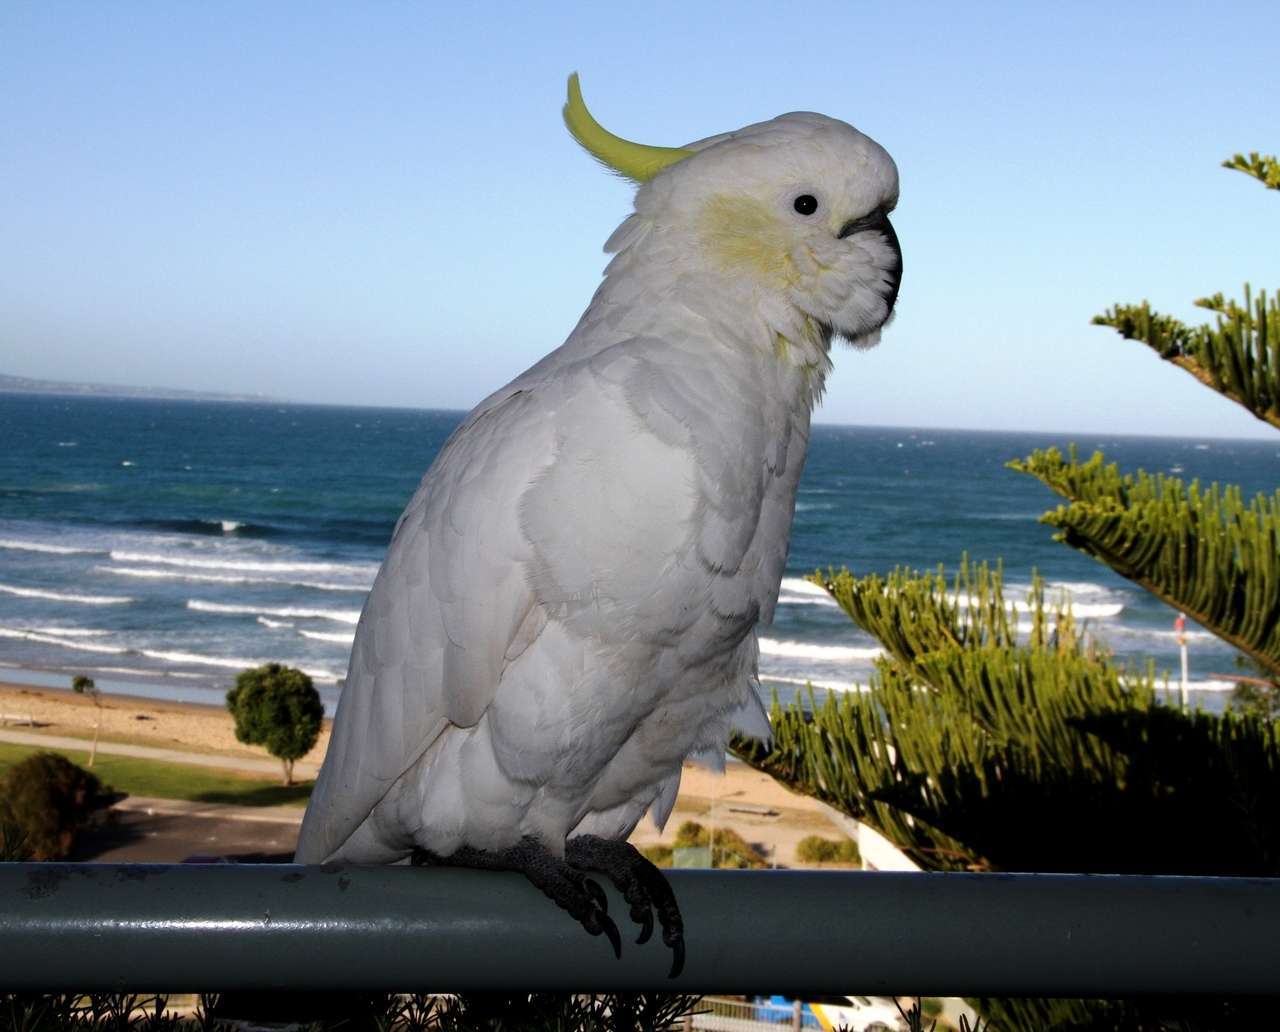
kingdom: Animalia
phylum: Chordata
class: Aves
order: Psittaciformes
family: Psittacidae
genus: Cacatua
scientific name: Cacatua galerita
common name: Sulphur-crested cockatoo
